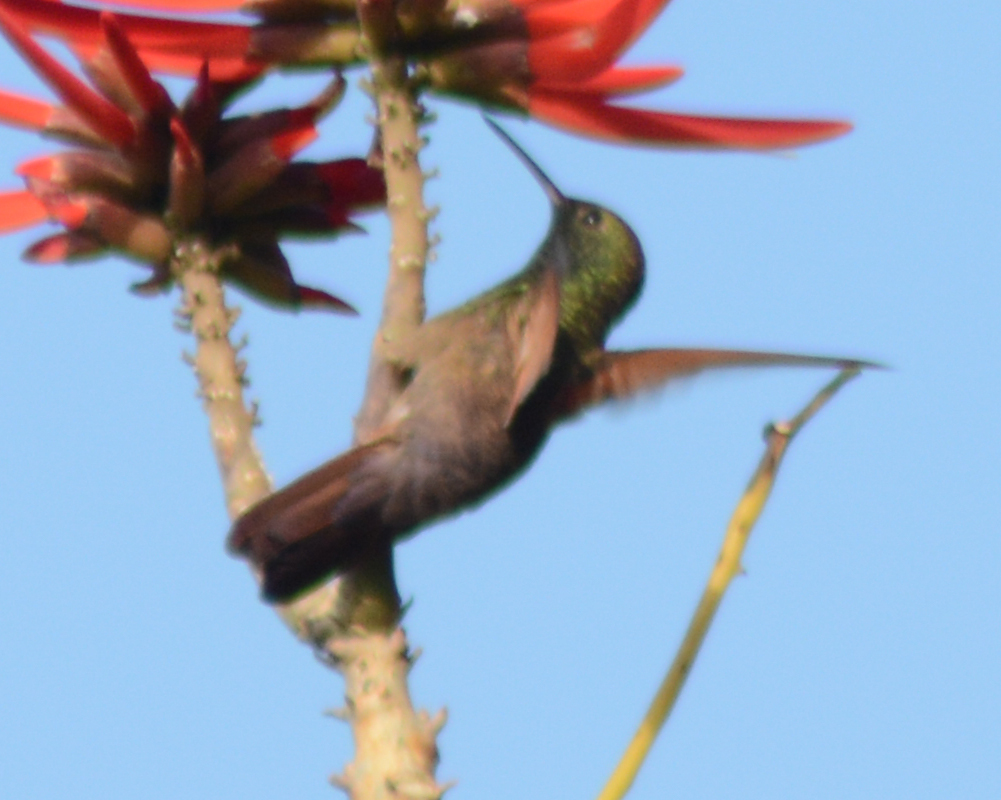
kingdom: Animalia
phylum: Chordata
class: Aves
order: Apodiformes
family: Trochilidae
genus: Saucerottia
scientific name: Saucerottia beryllina
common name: Berylline hummingbird
